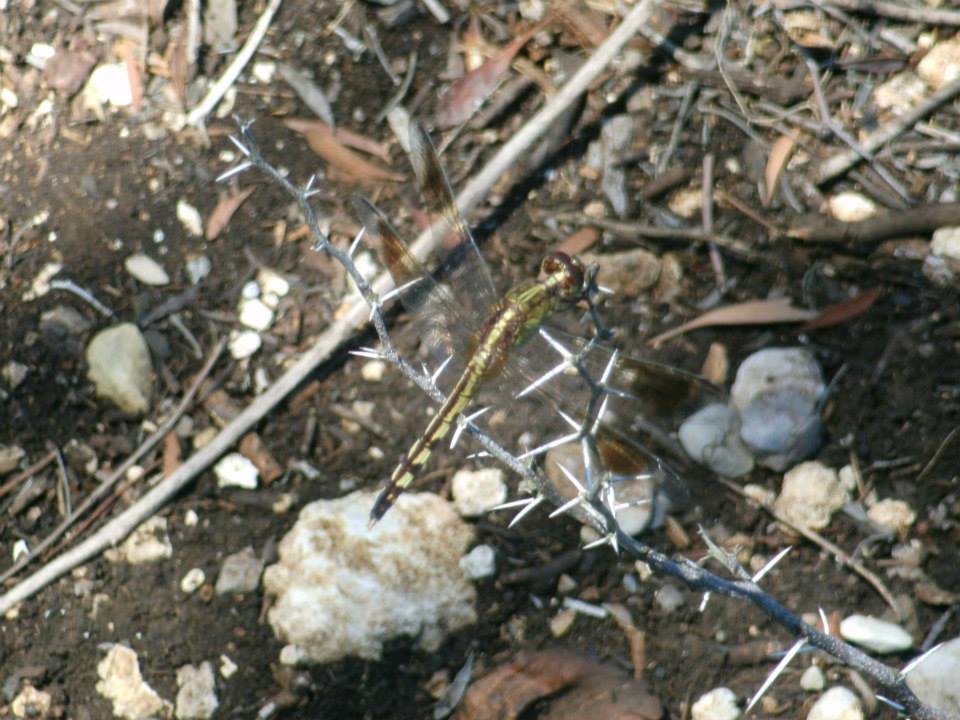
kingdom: Animalia
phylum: Arthropoda
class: Insecta
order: Odonata
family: Libellulidae
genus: Erythrodiplax
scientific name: Erythrodiplax umbrata
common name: Band-winged dragonlet
